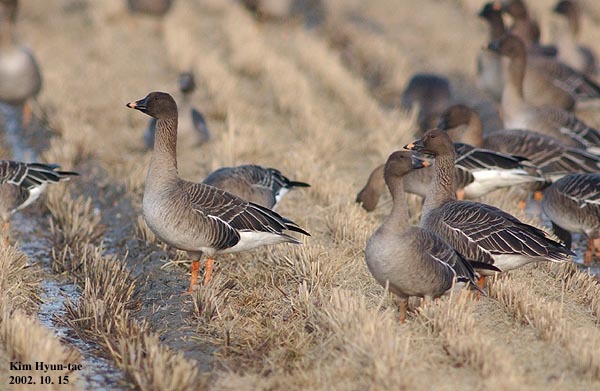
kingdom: Animalia
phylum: Chordata
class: Aves
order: Anseriformes
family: Anatidae
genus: Anser
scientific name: Anser fabalis
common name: Bean goose
